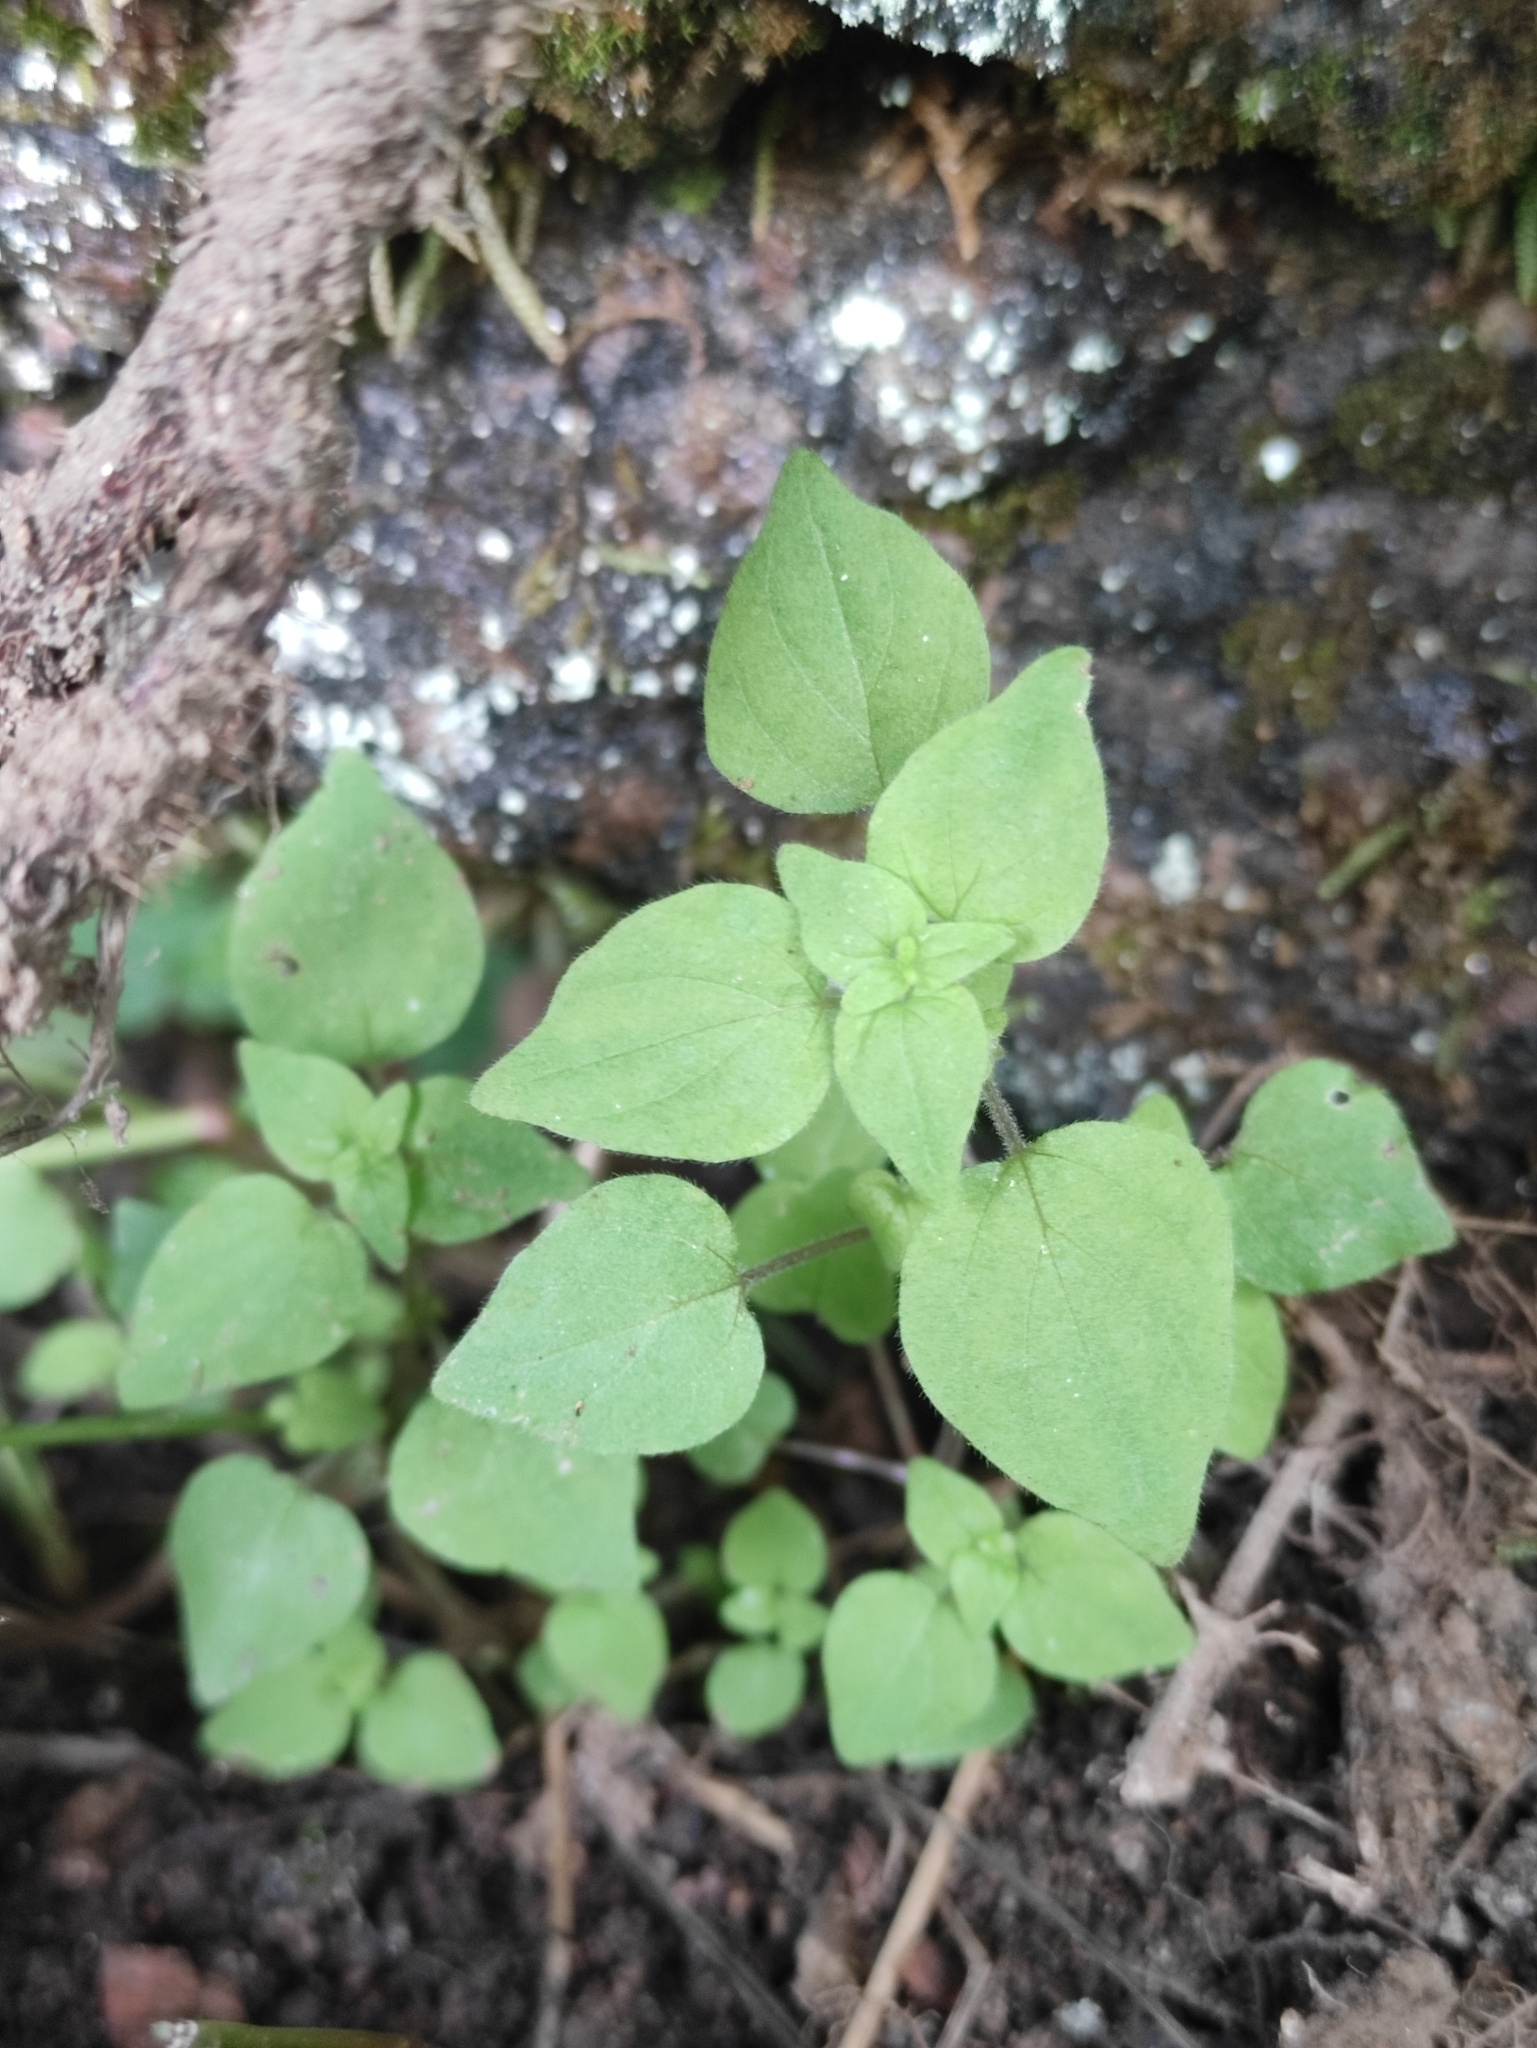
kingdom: Plantae
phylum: Tracheophyta
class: Magnoliopsida
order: Rosales
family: Urticaceae
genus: Parietaria
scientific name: Parietaria micrantha
